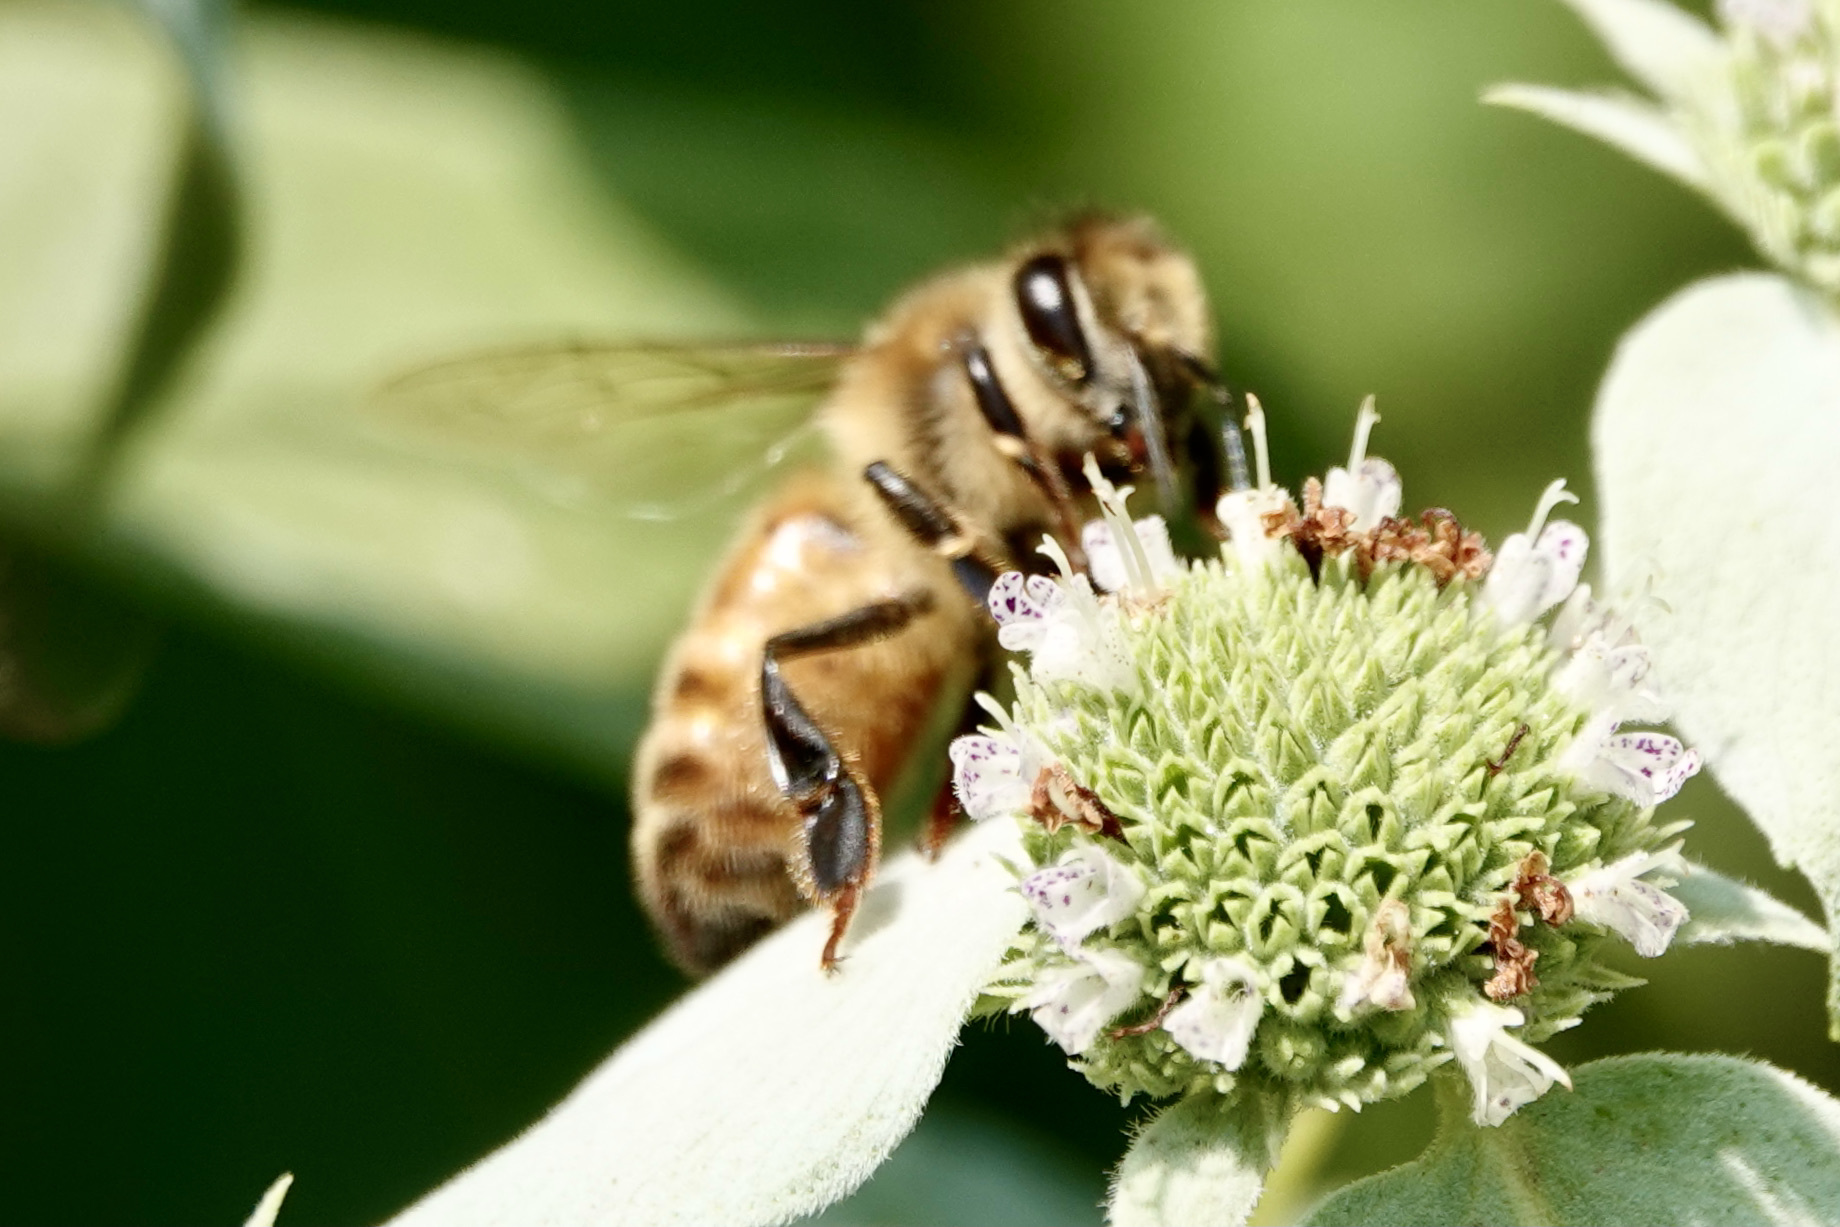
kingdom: Animalia
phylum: Arthropoda
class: Insecta
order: Hymenoptera
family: Apidae
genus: Apis
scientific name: Apis mellifera
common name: Honey bee
